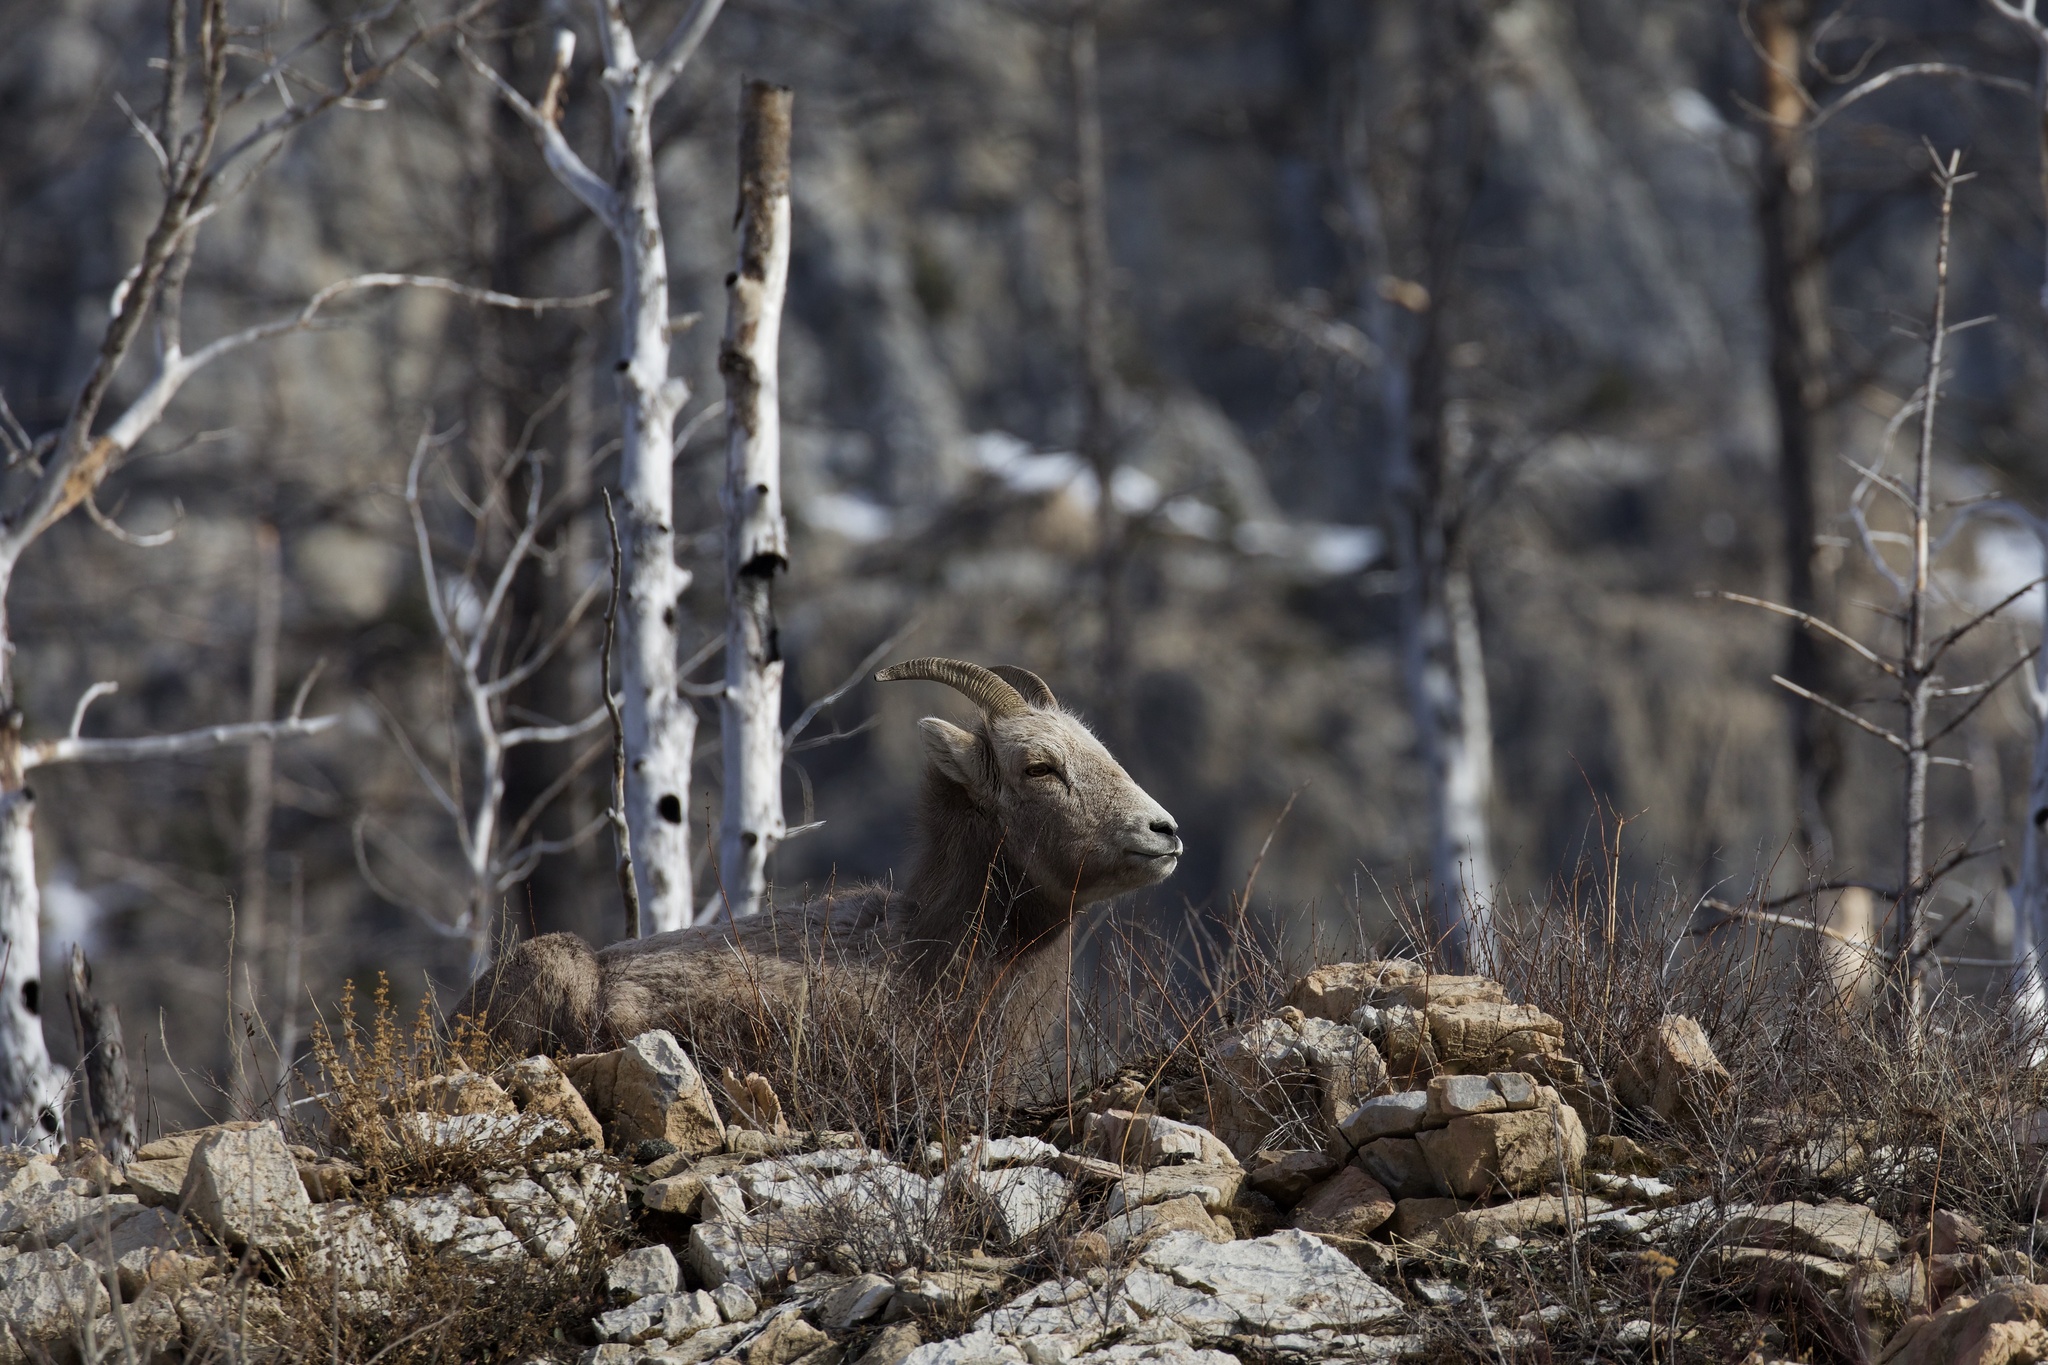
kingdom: Animalia
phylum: Chordata
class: Mammalia
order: Artiodactyla
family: Bovidae
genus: Ovis
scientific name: Ovis canadensis
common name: Bighorn sheep
